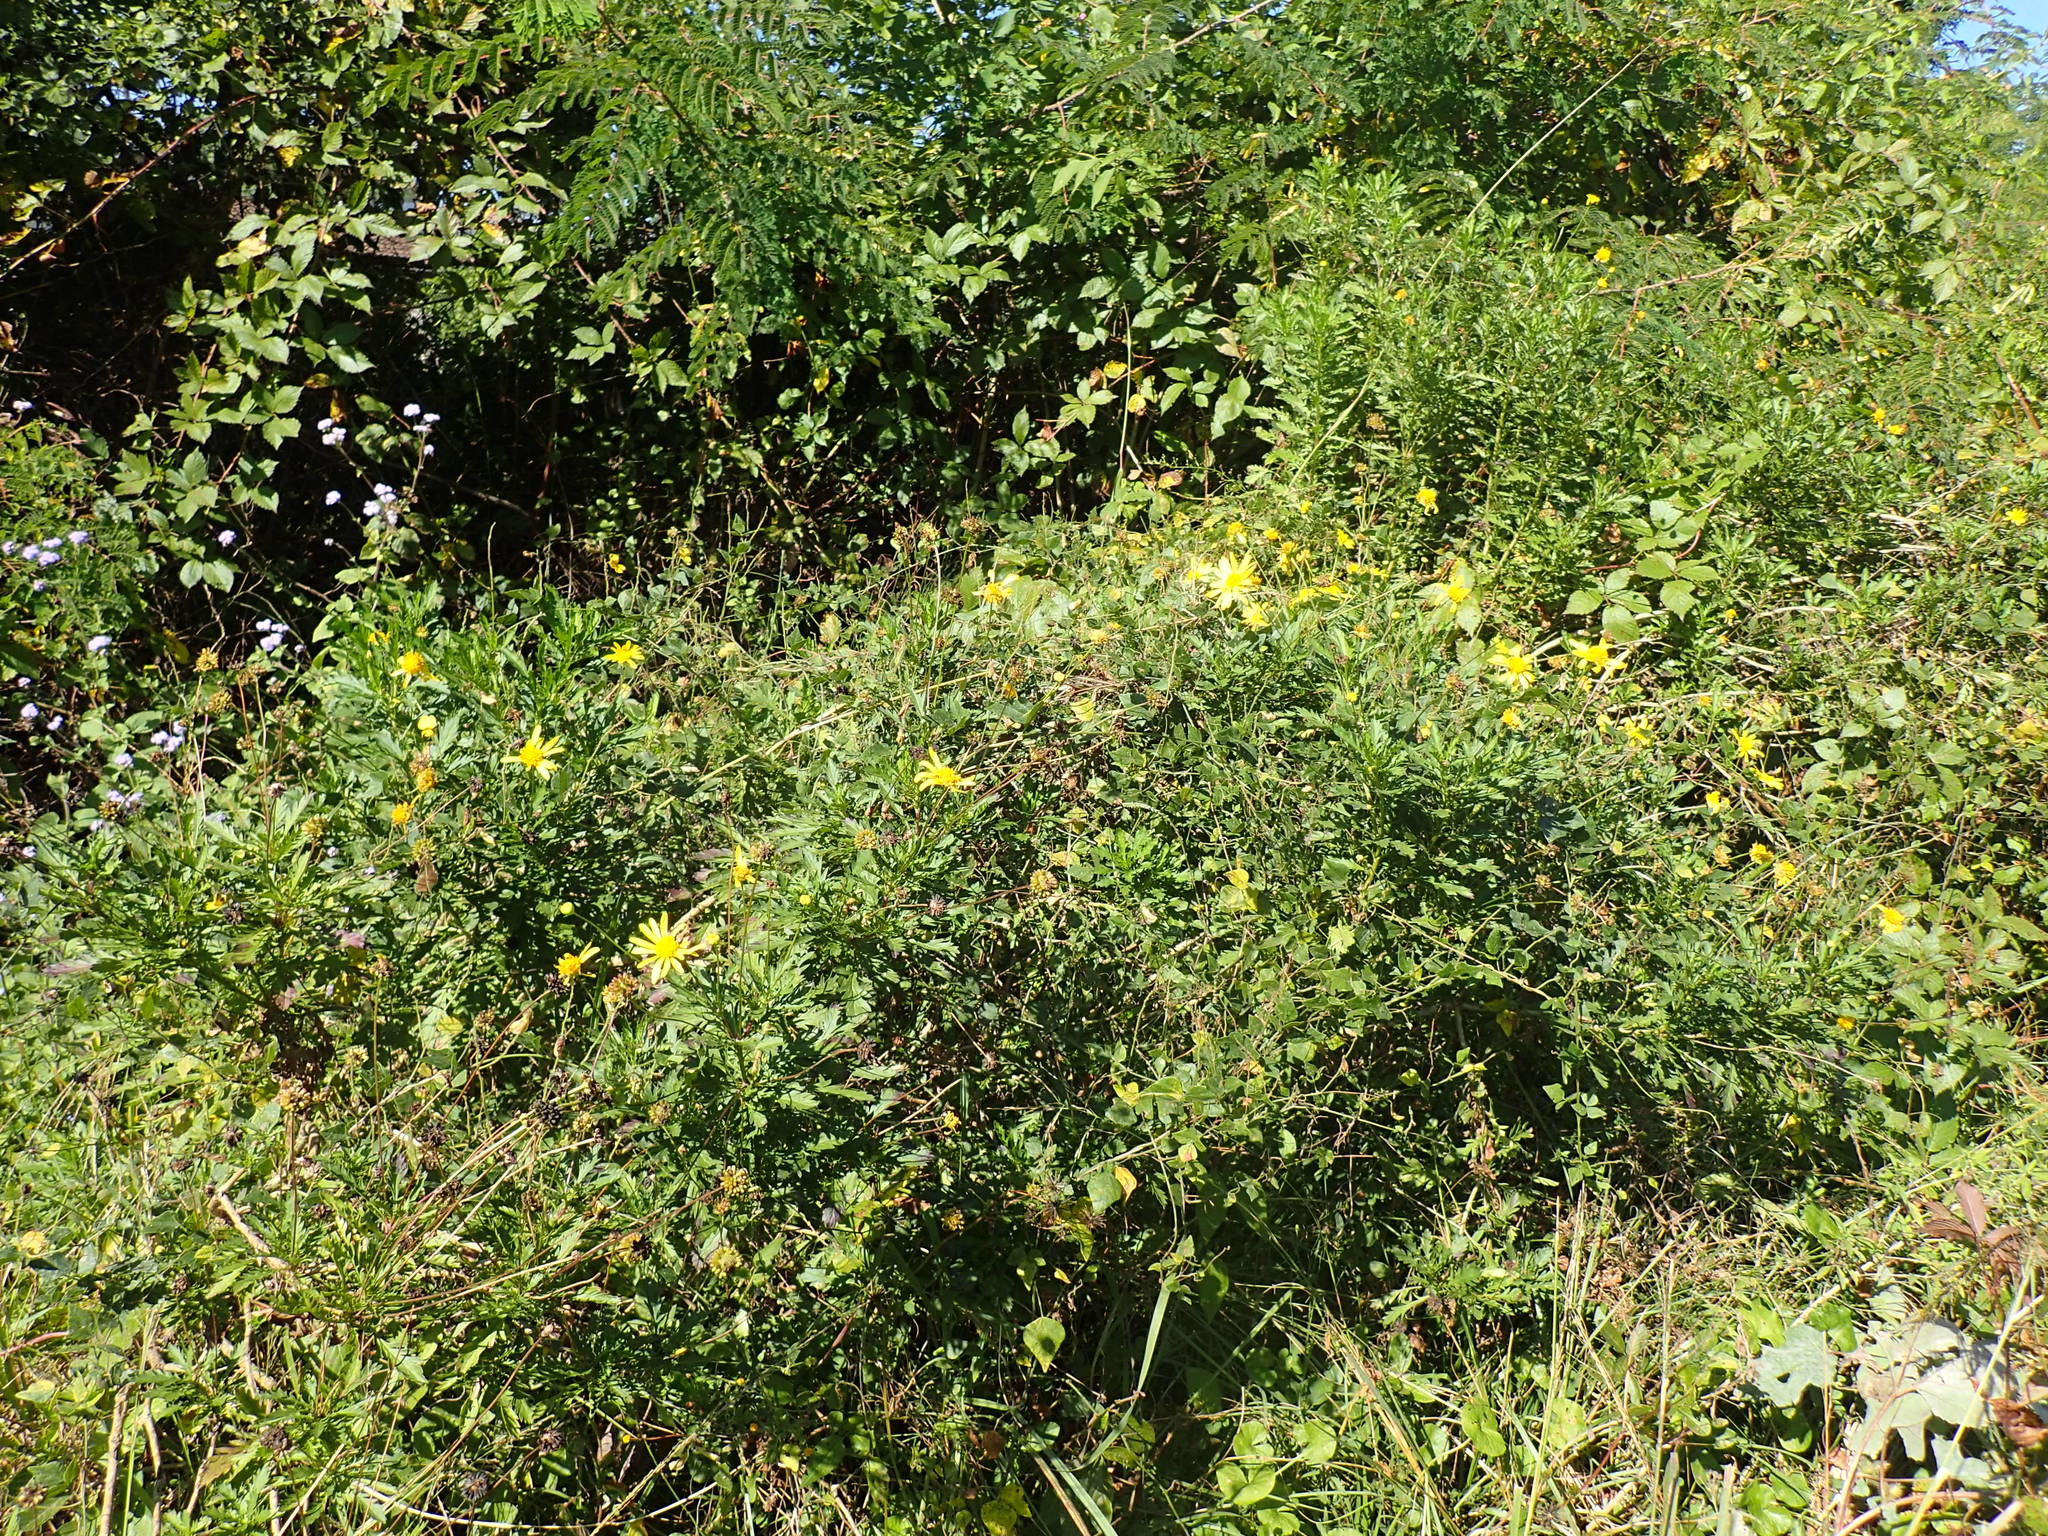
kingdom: Plantae
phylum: Tracheophyta
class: Magnoliopsida
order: Asterales
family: Asteraceae
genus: Euryops
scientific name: Euryops chrysanthemoides
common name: Bull's eye
